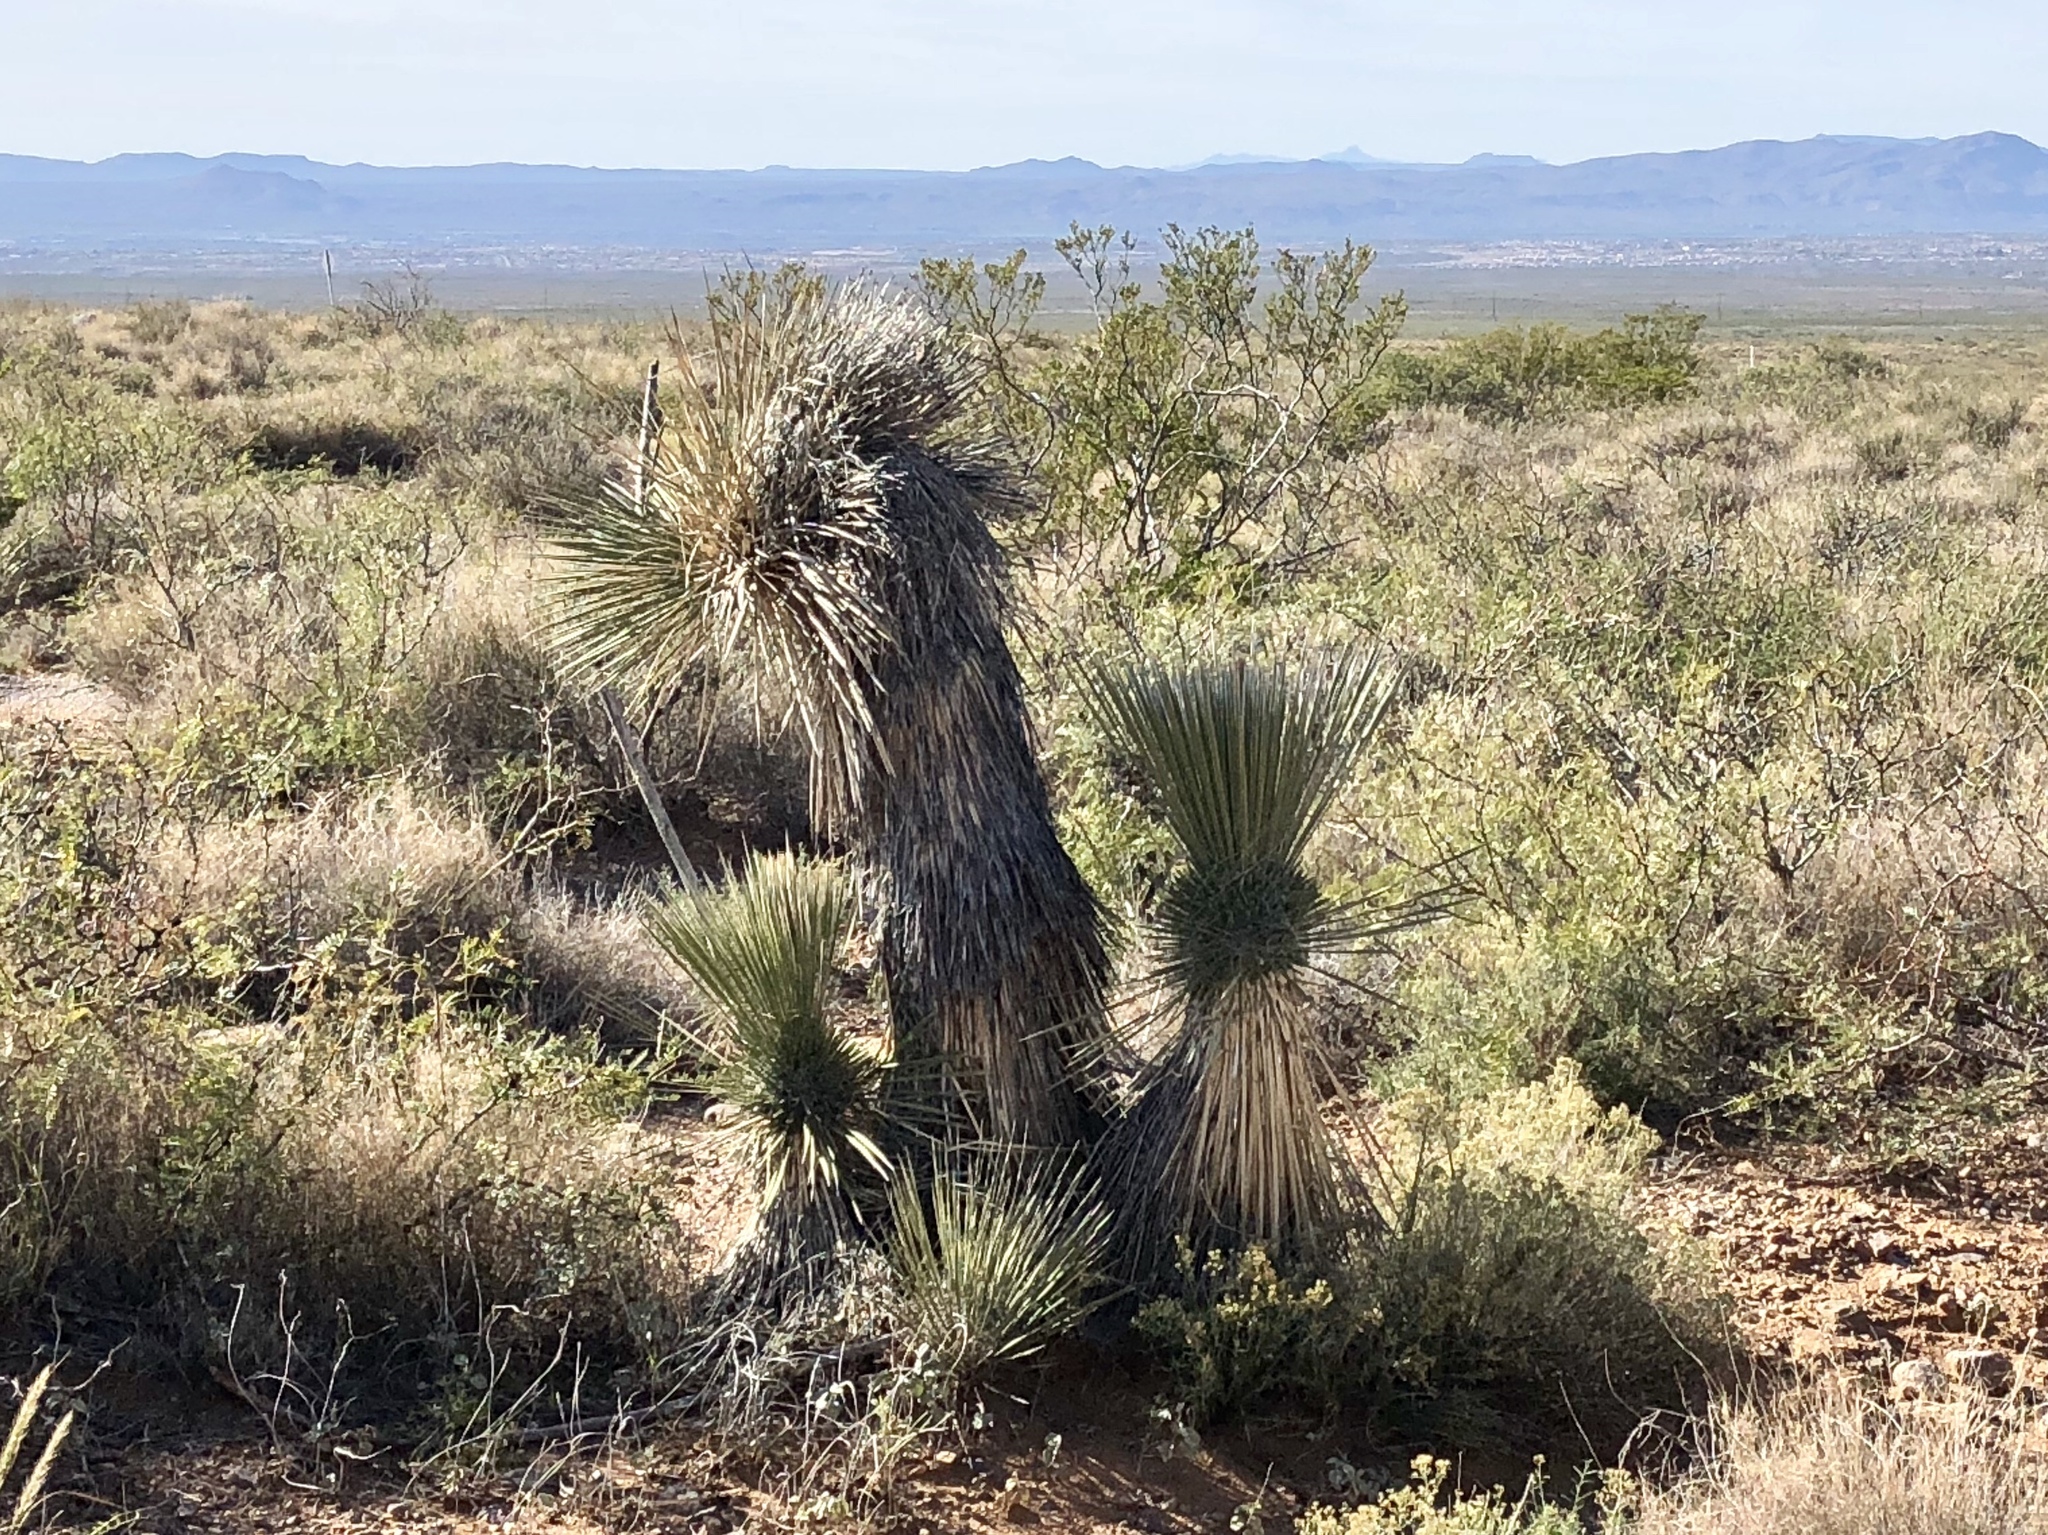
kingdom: Plantae
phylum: Tracheophyta
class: Liliopsida
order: Asparagales
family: Asparagaceae
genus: Yucca
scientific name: Yucca elata
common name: Palmella
